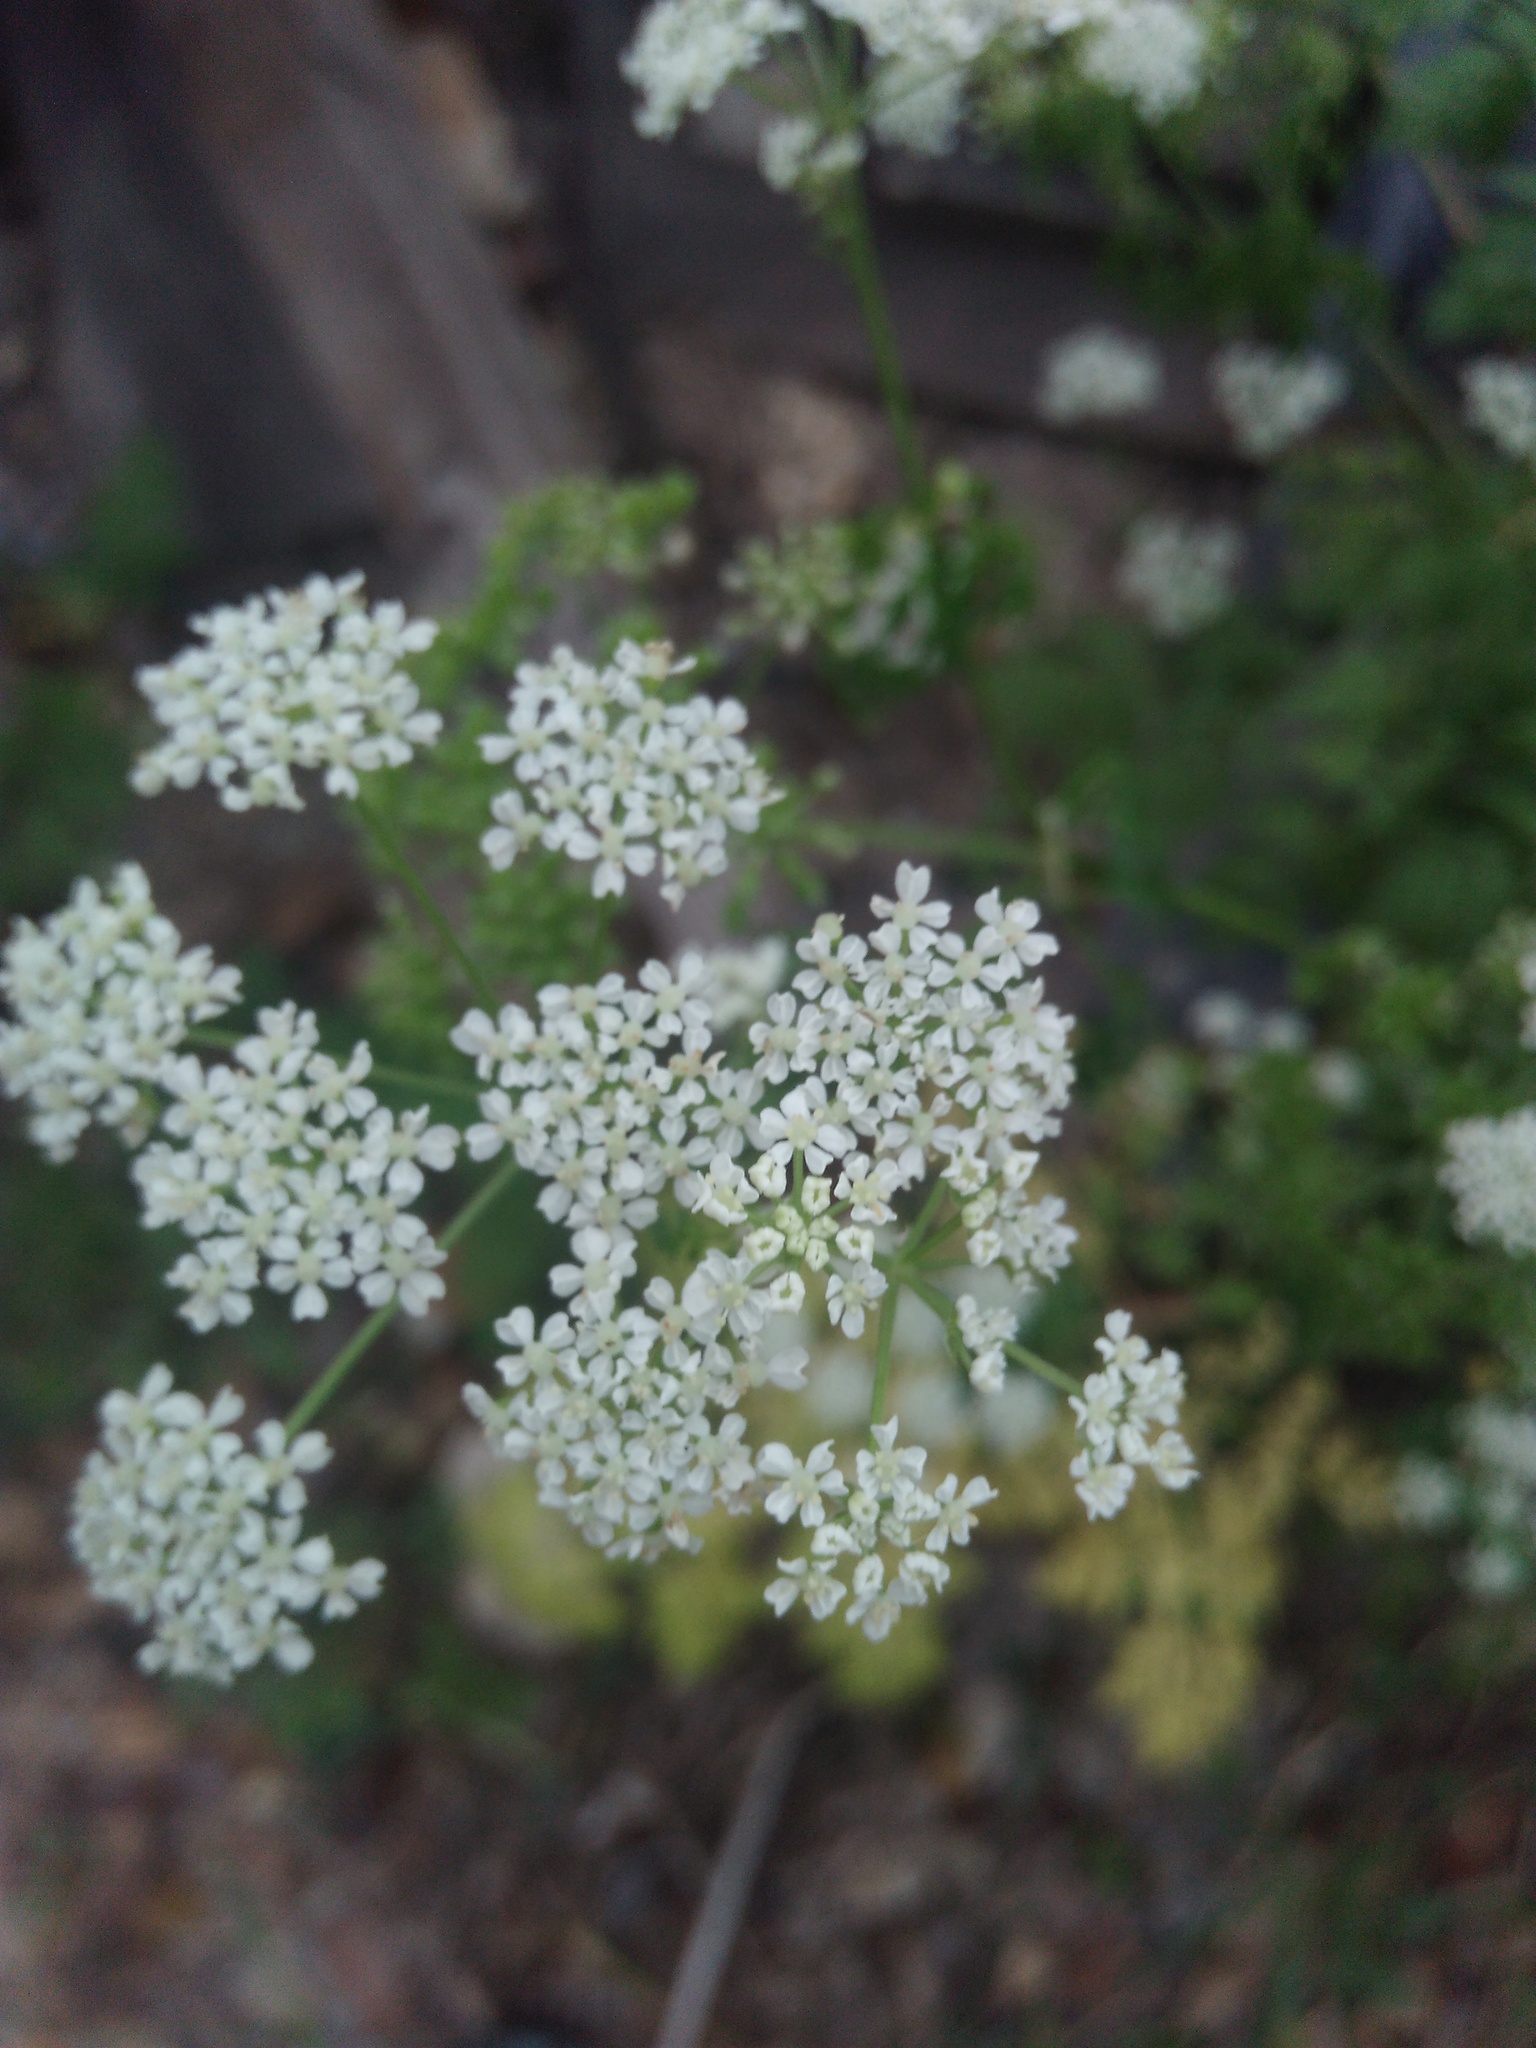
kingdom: Plantae
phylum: Tracheophyta
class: Magnoliopsida
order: Apiales
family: Apiaceae
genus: Conium
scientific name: Conium maculatum
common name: Hemlock
